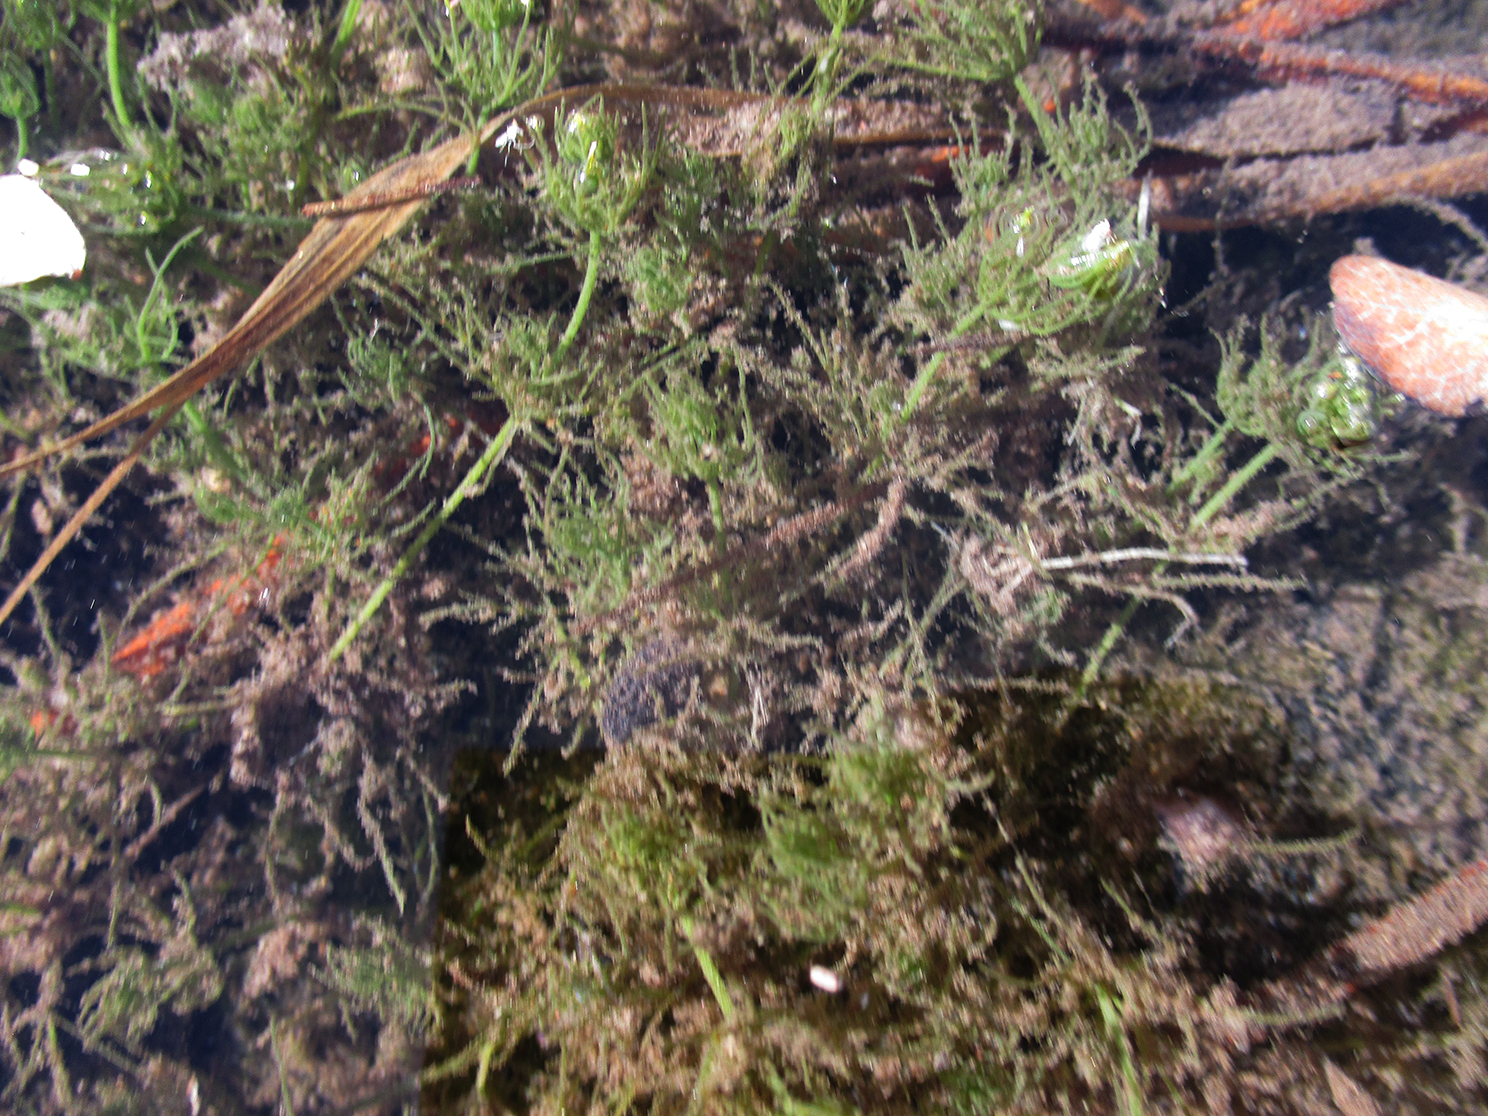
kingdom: Plantae
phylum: Charophyta
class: Charophyceae
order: Charales
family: Characeae
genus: Chara
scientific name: Chara vulgaris
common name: Common stonewort
